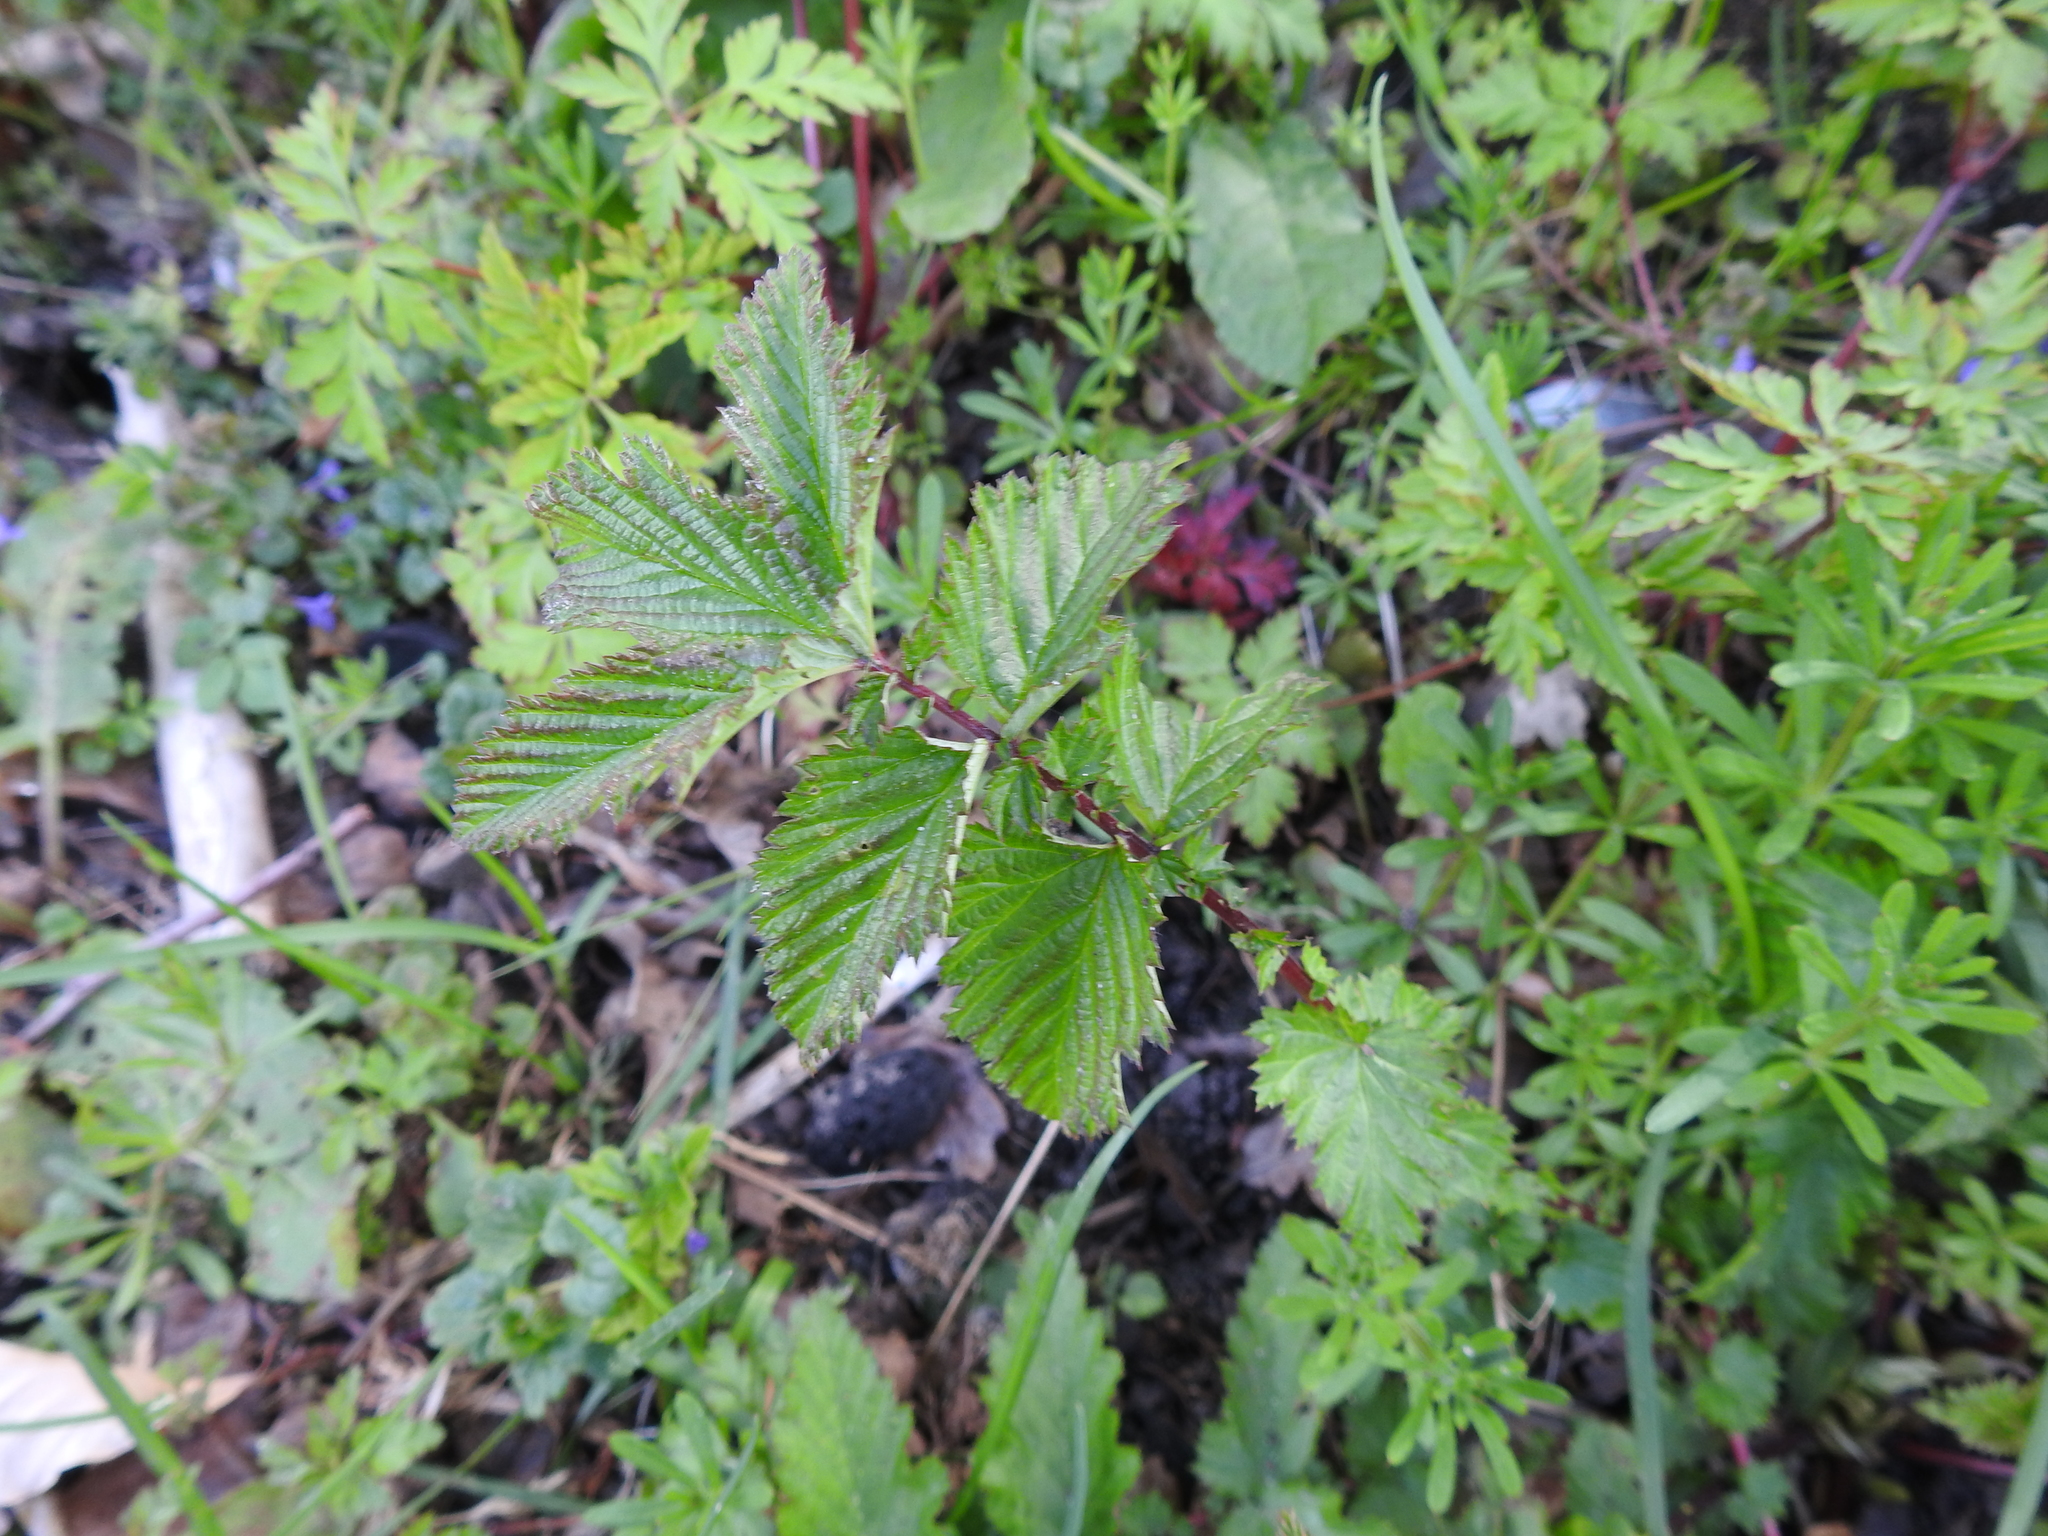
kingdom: Plantae
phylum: Tracheophyta
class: Magnoliopsida
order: Rosales
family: Rosaceae
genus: Filipendula
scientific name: Filipendula ulmaria
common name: Meadowsweet
